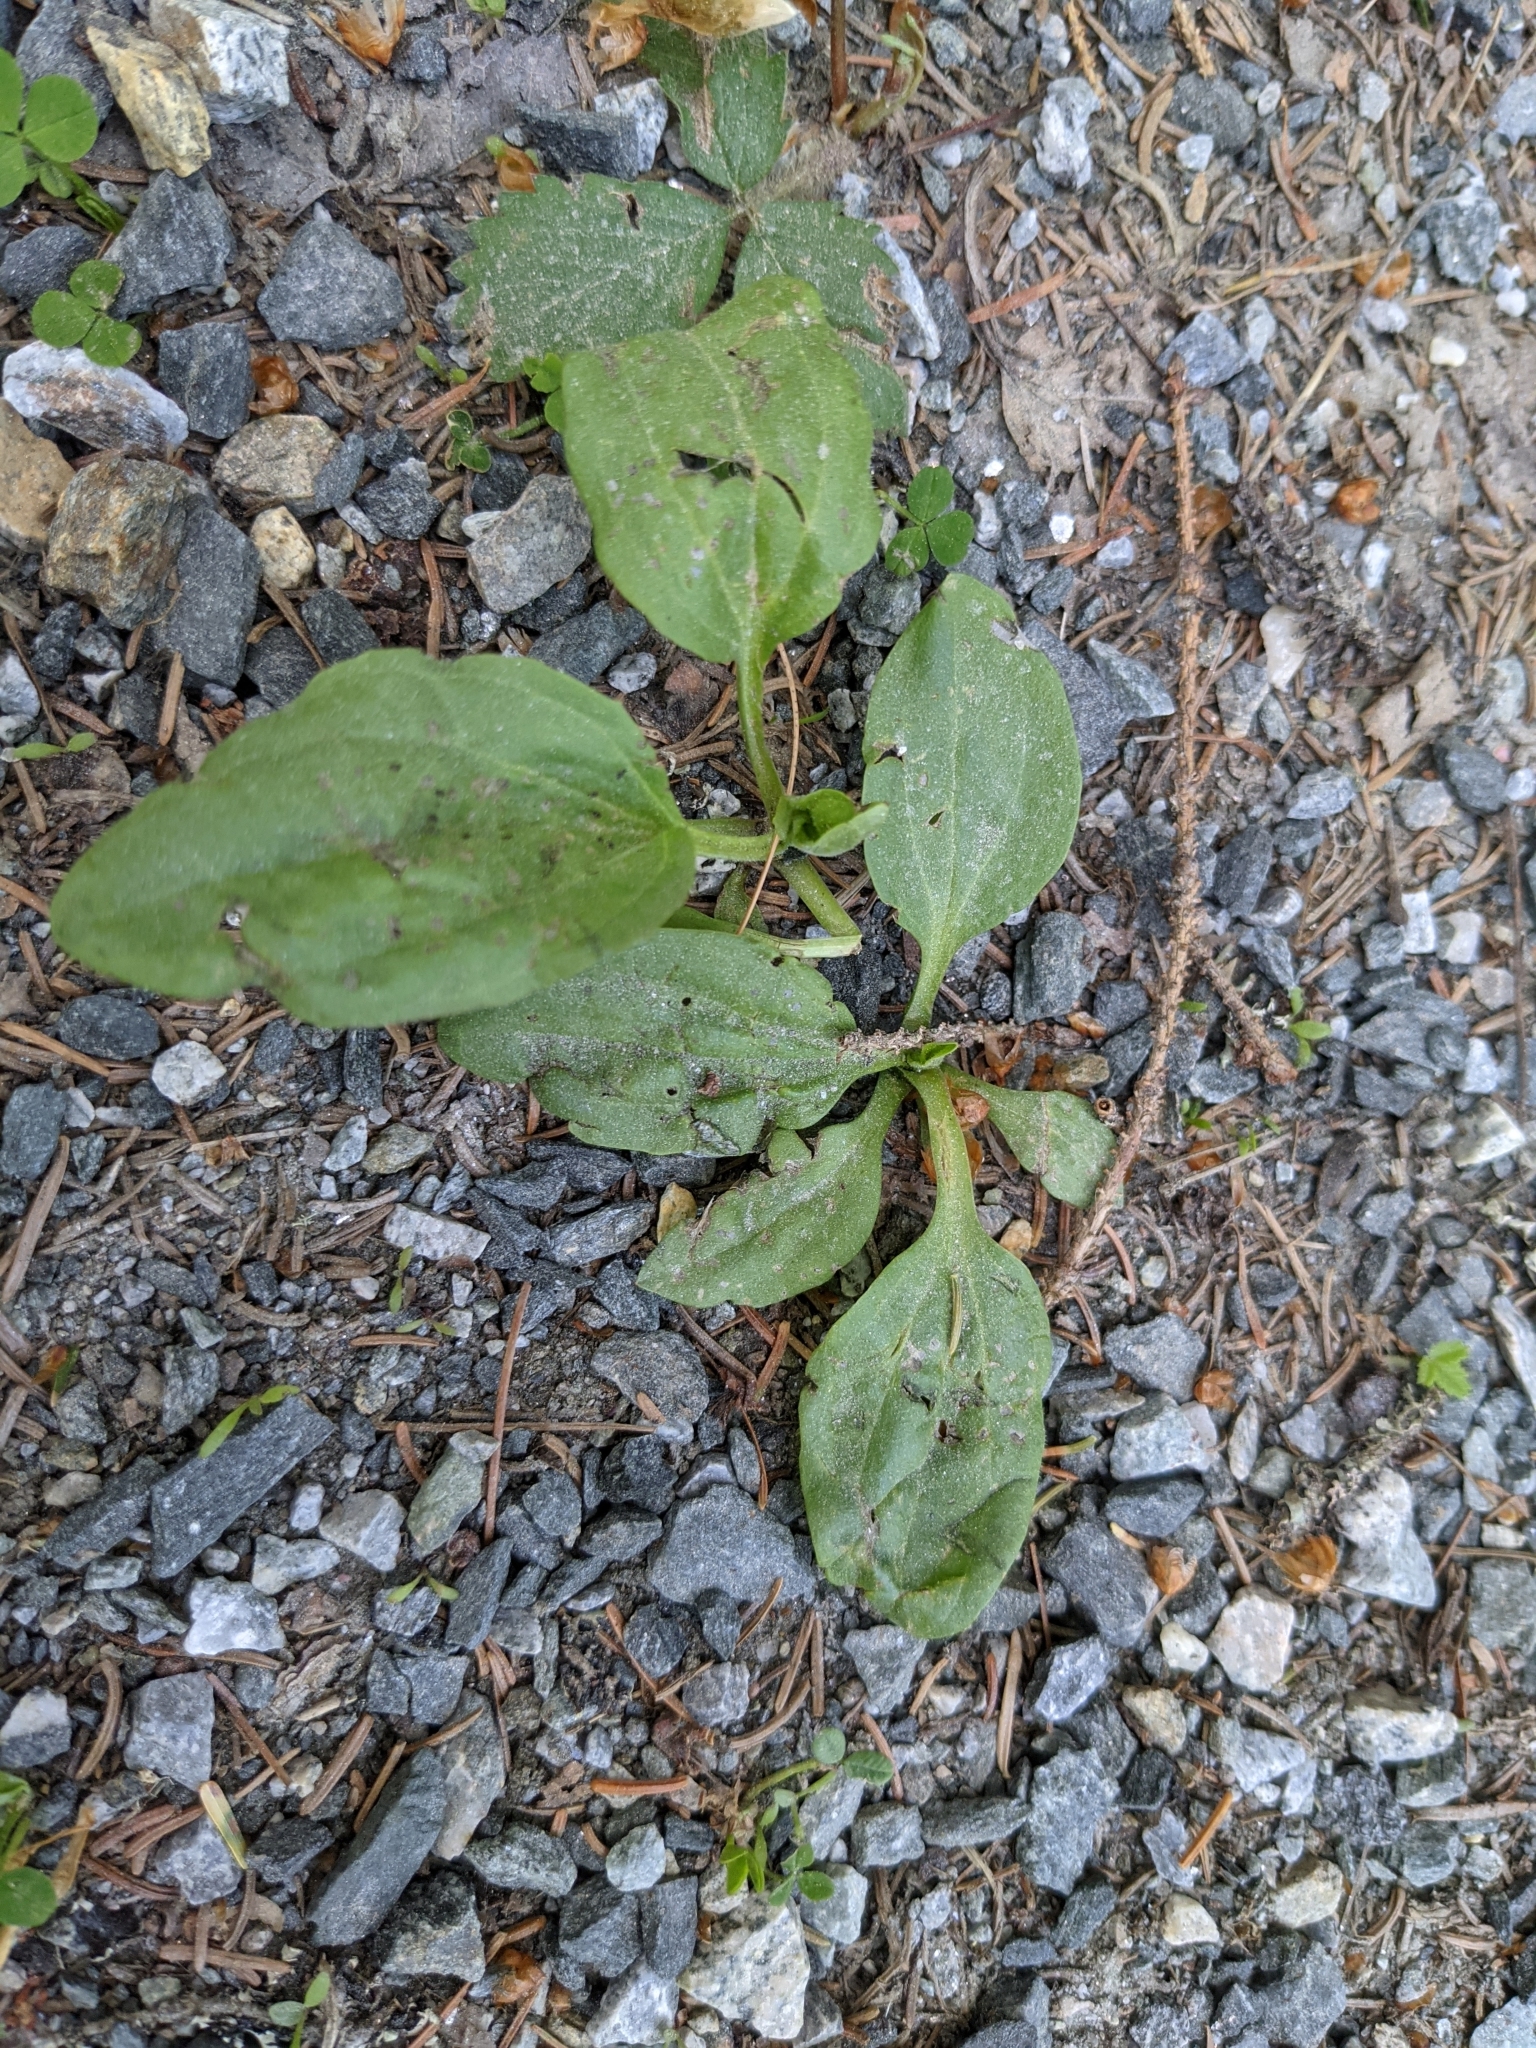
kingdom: Plantae
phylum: Tracheophyta
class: Magnoliopsida
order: Lamiales
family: Plantaginaceae
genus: Plantago
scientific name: Plantago major
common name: Common plantain
